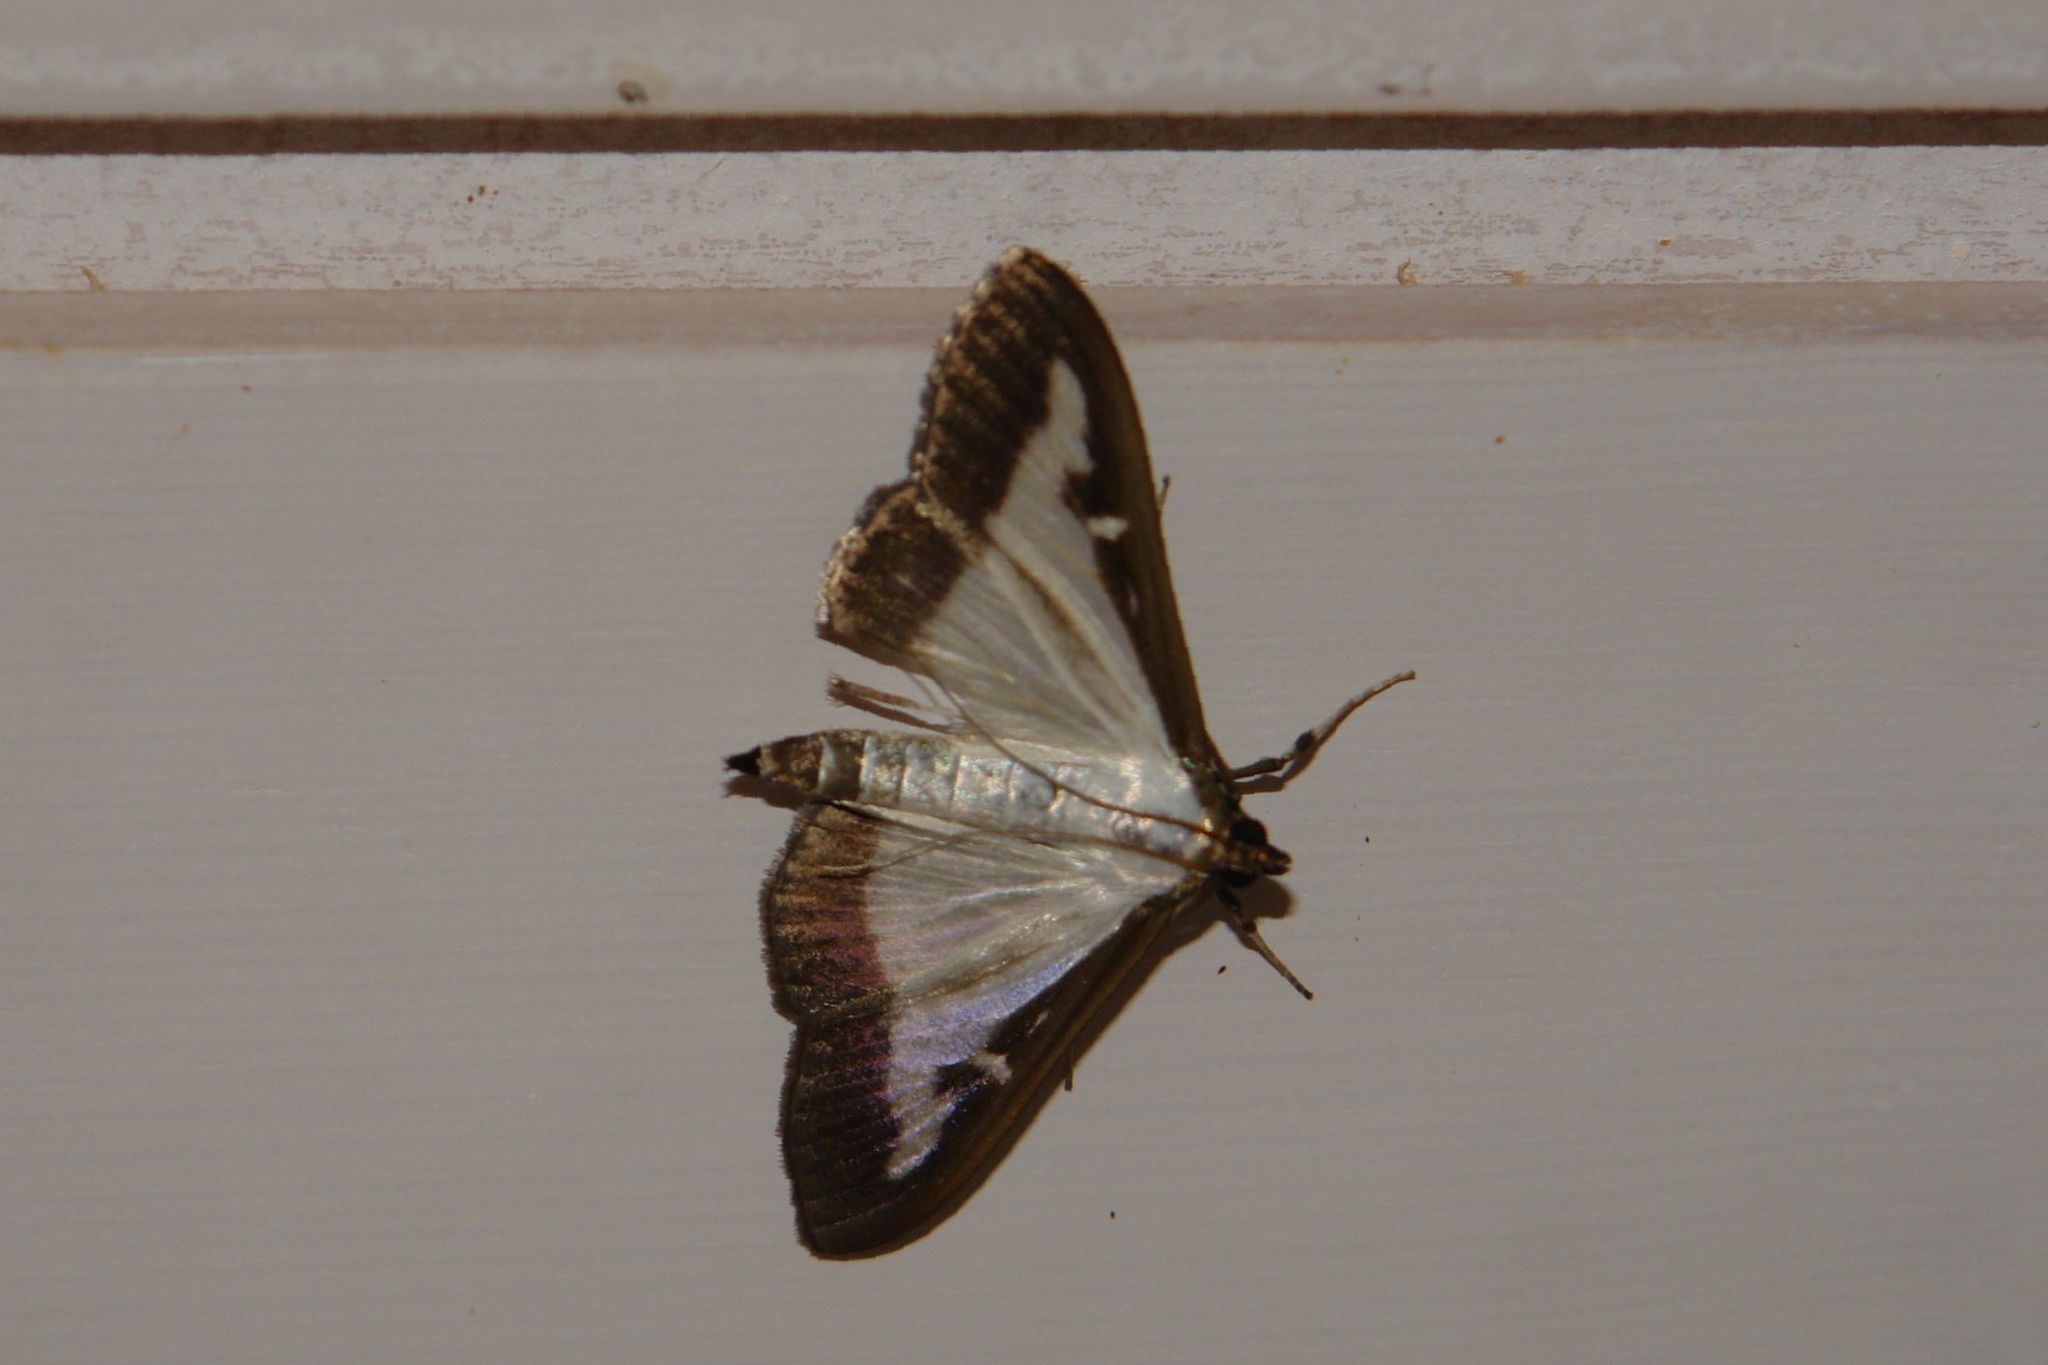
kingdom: Animalia
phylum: Arthropoda
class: Insecta
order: Lepidoptera
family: Crambidae
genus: Cydalima
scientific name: Cydalima perspectalis
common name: Box tree moth
